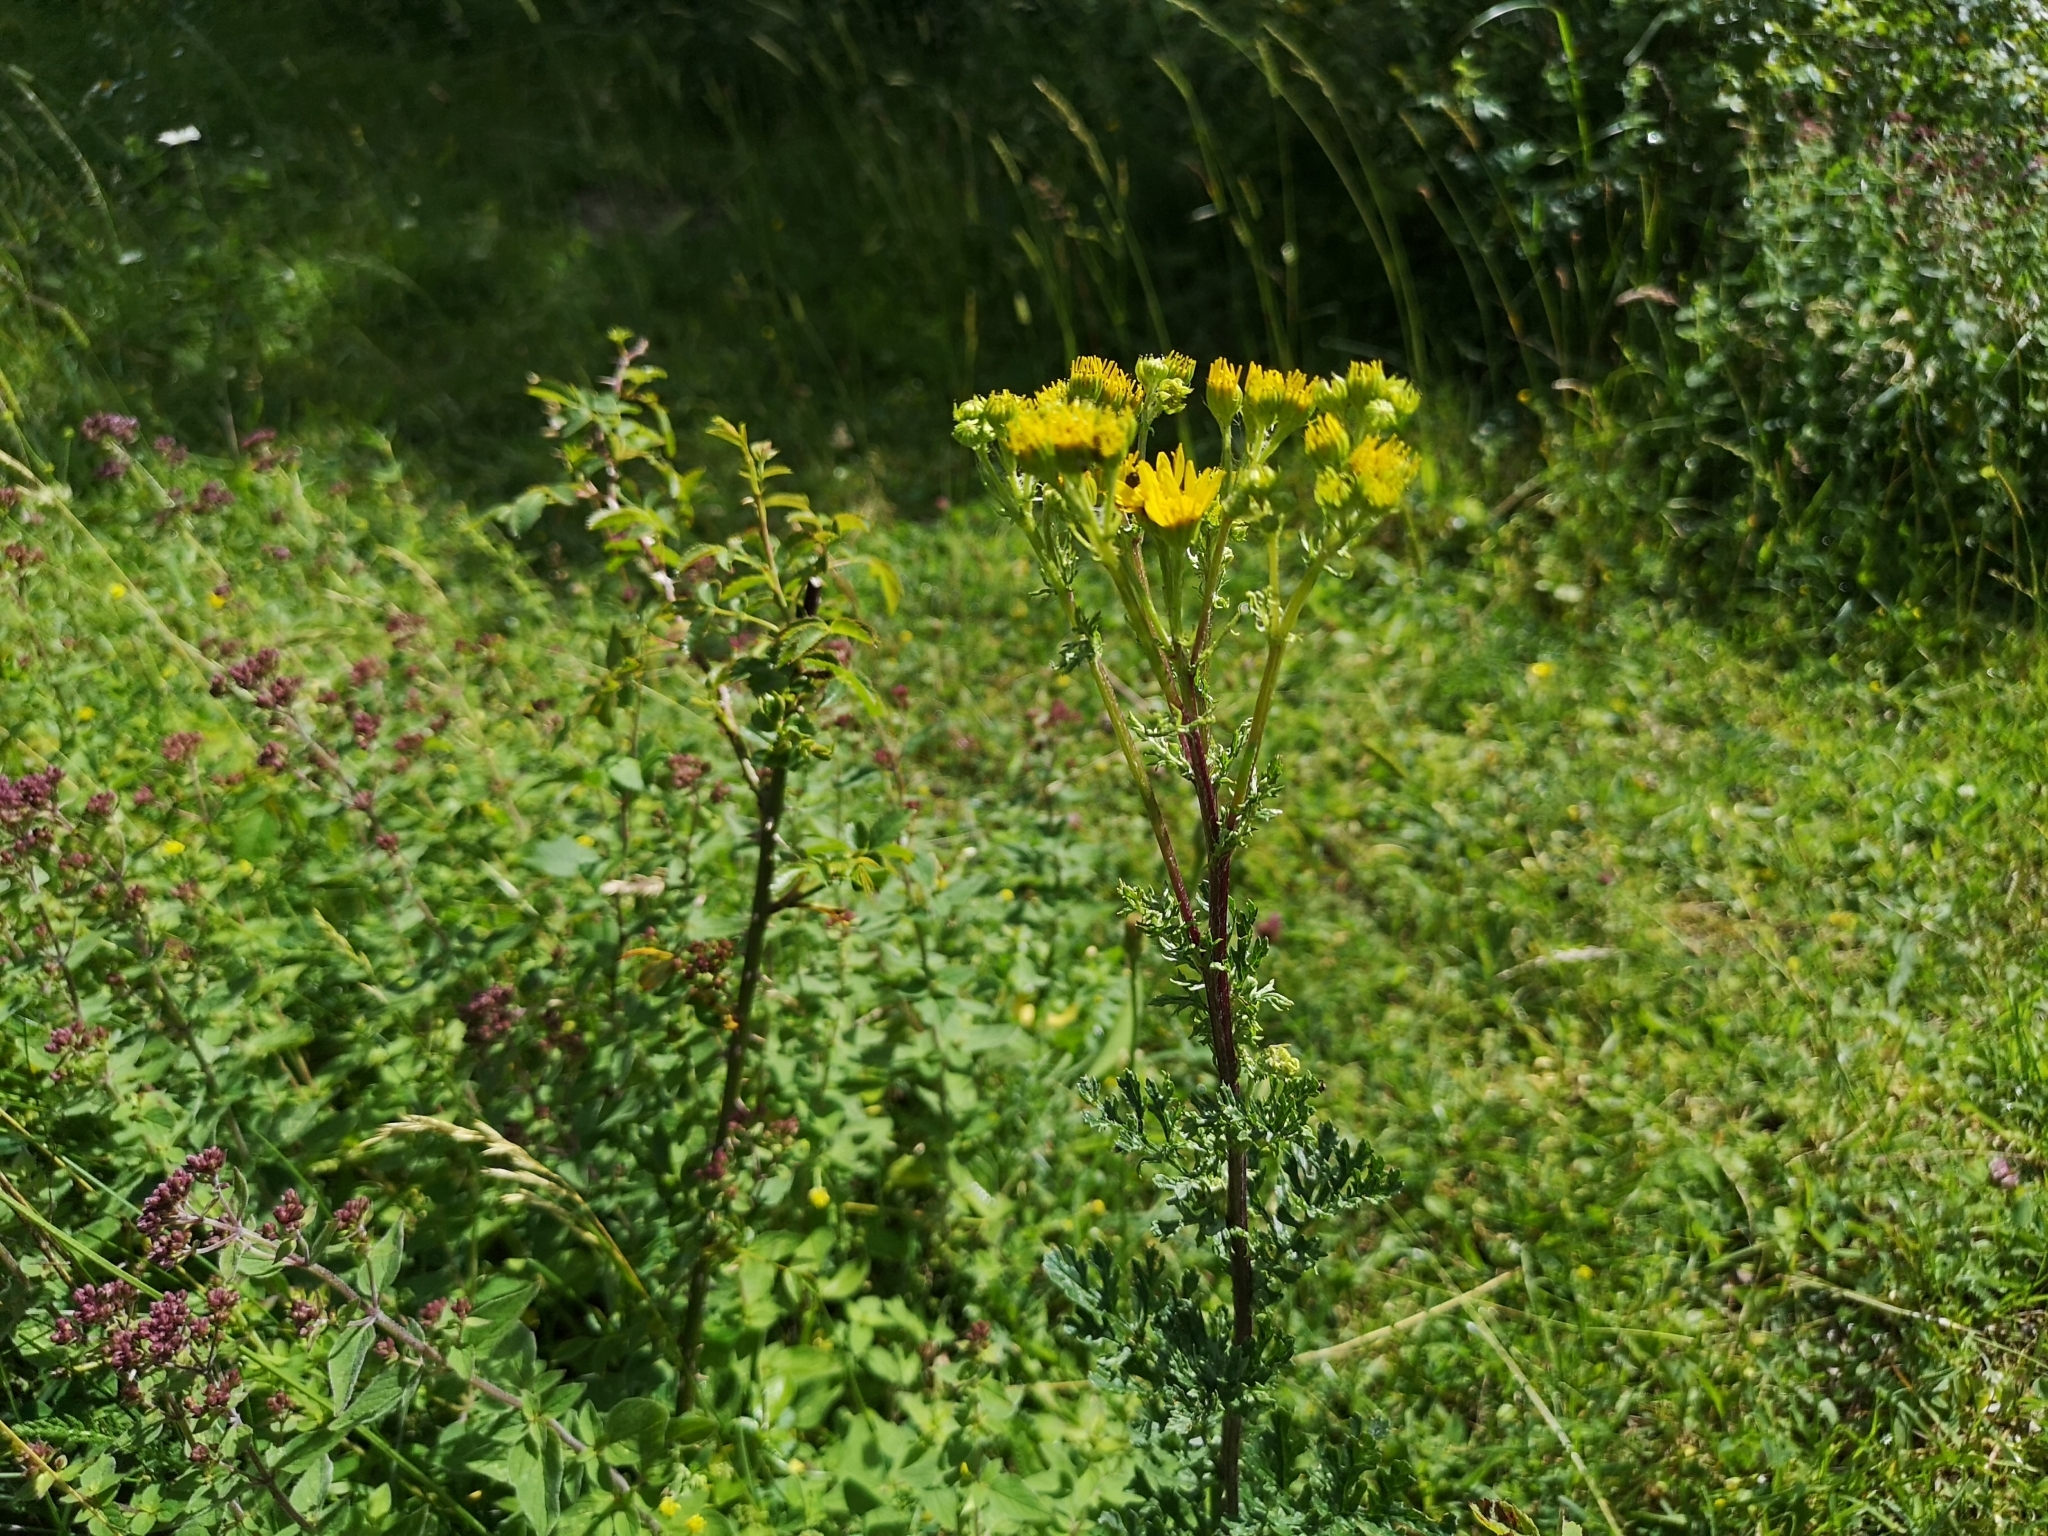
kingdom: Plantae
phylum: Tracheophyta
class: Magnoliopsida
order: Asterales
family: Asteraceae
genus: Jacobaea
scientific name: Jacobaea vulgaris
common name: Stinking willie
